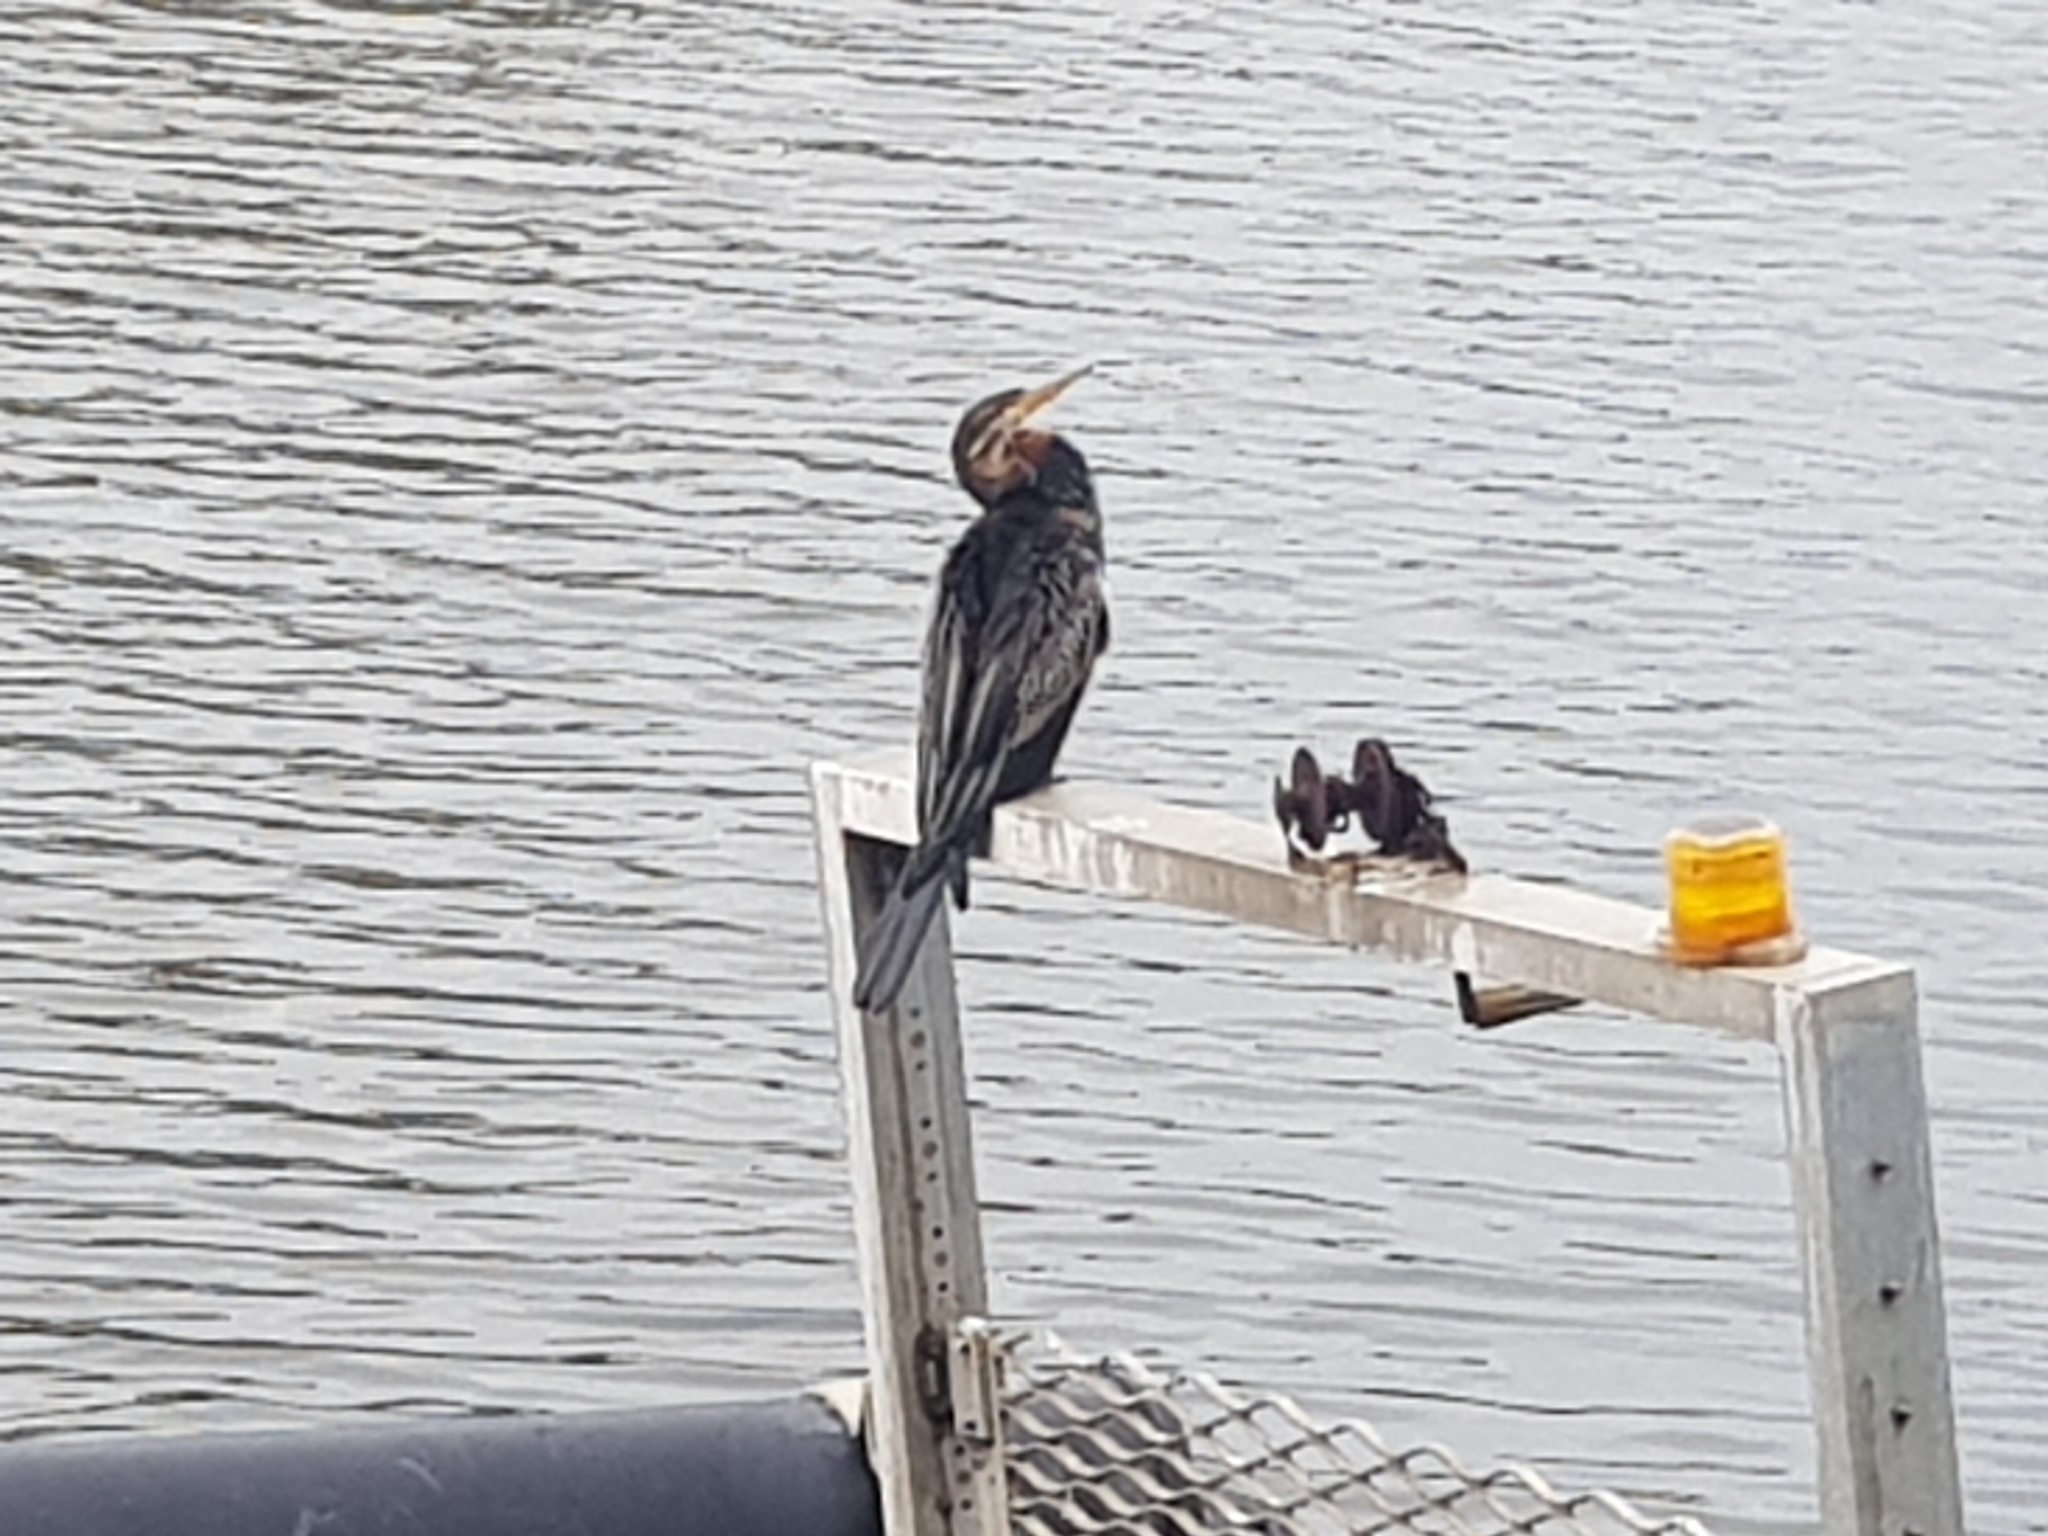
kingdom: Animalia
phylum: Chordata
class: Aves
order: Suliformes
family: Anhingidae
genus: Anhinga
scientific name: Anhinga novaehollandiae
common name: Australasian darter
